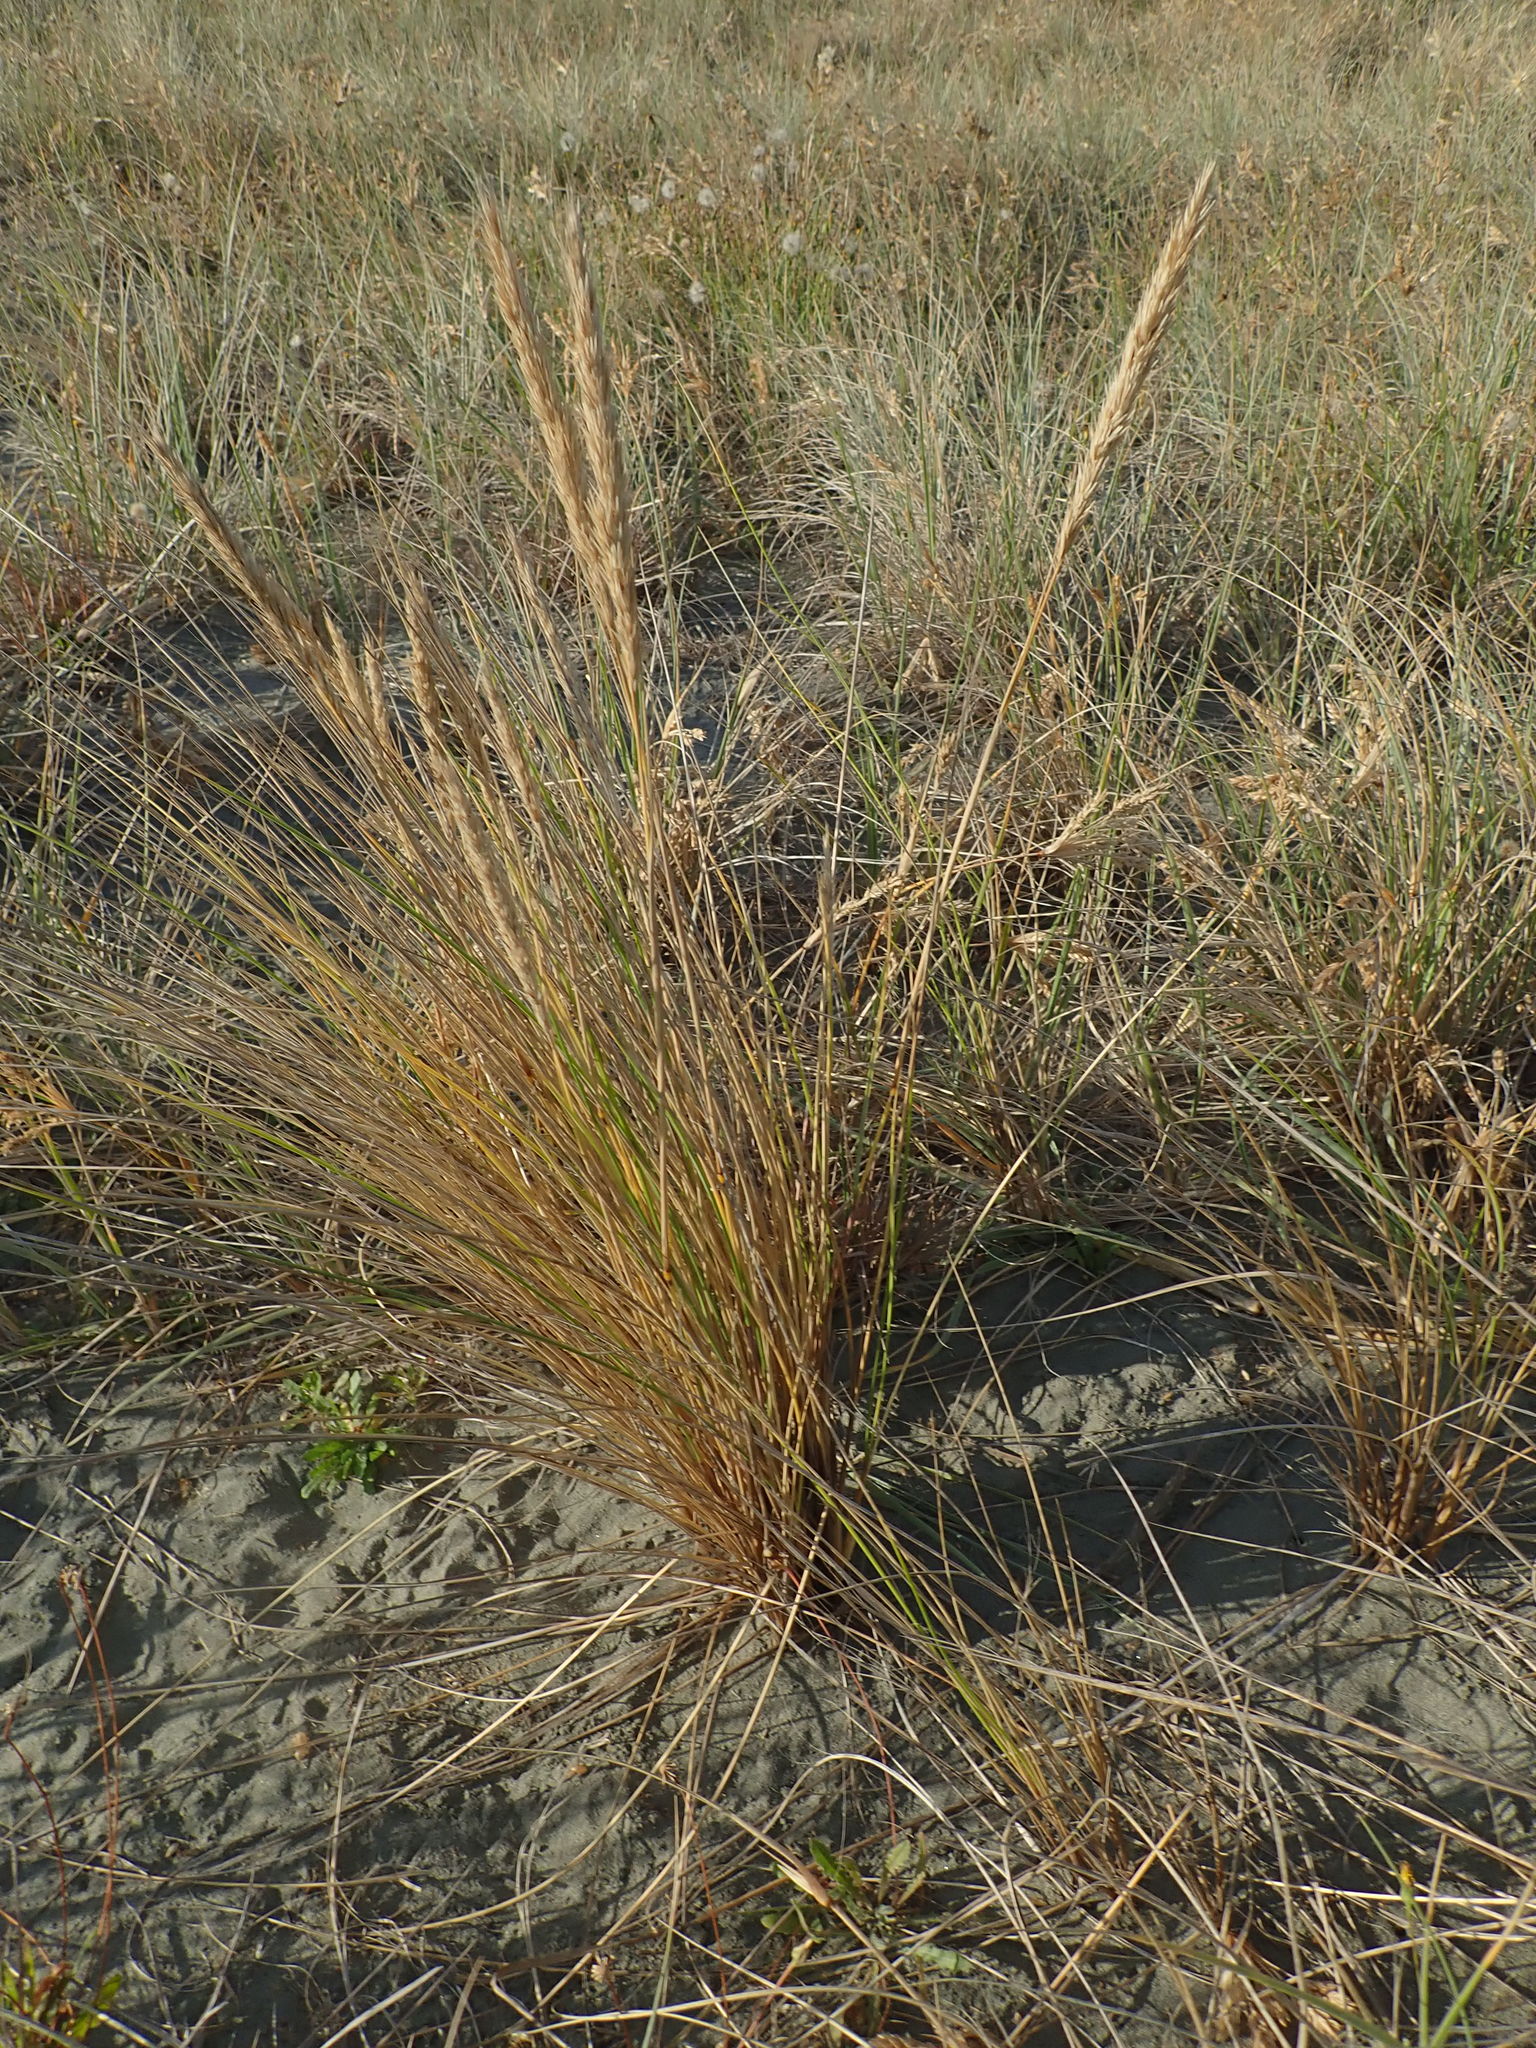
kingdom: Plantae
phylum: Tracheophyta
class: Liliopsida
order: Poales
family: Poaceae
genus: Calamagrostis
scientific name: Calamagrostis arenaria
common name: European beachgrass
